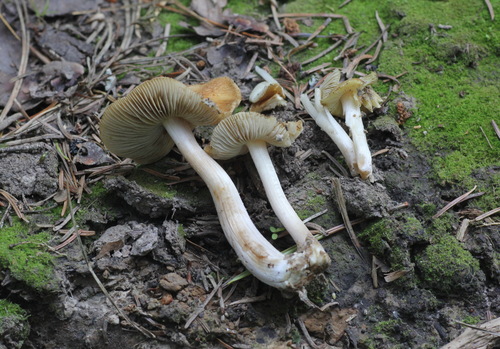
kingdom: Fungi
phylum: Basidiomycota
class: Agaricomycetes
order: Agaricales
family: Inocybaceae
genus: Inosperma
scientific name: Inosperma maculatum
